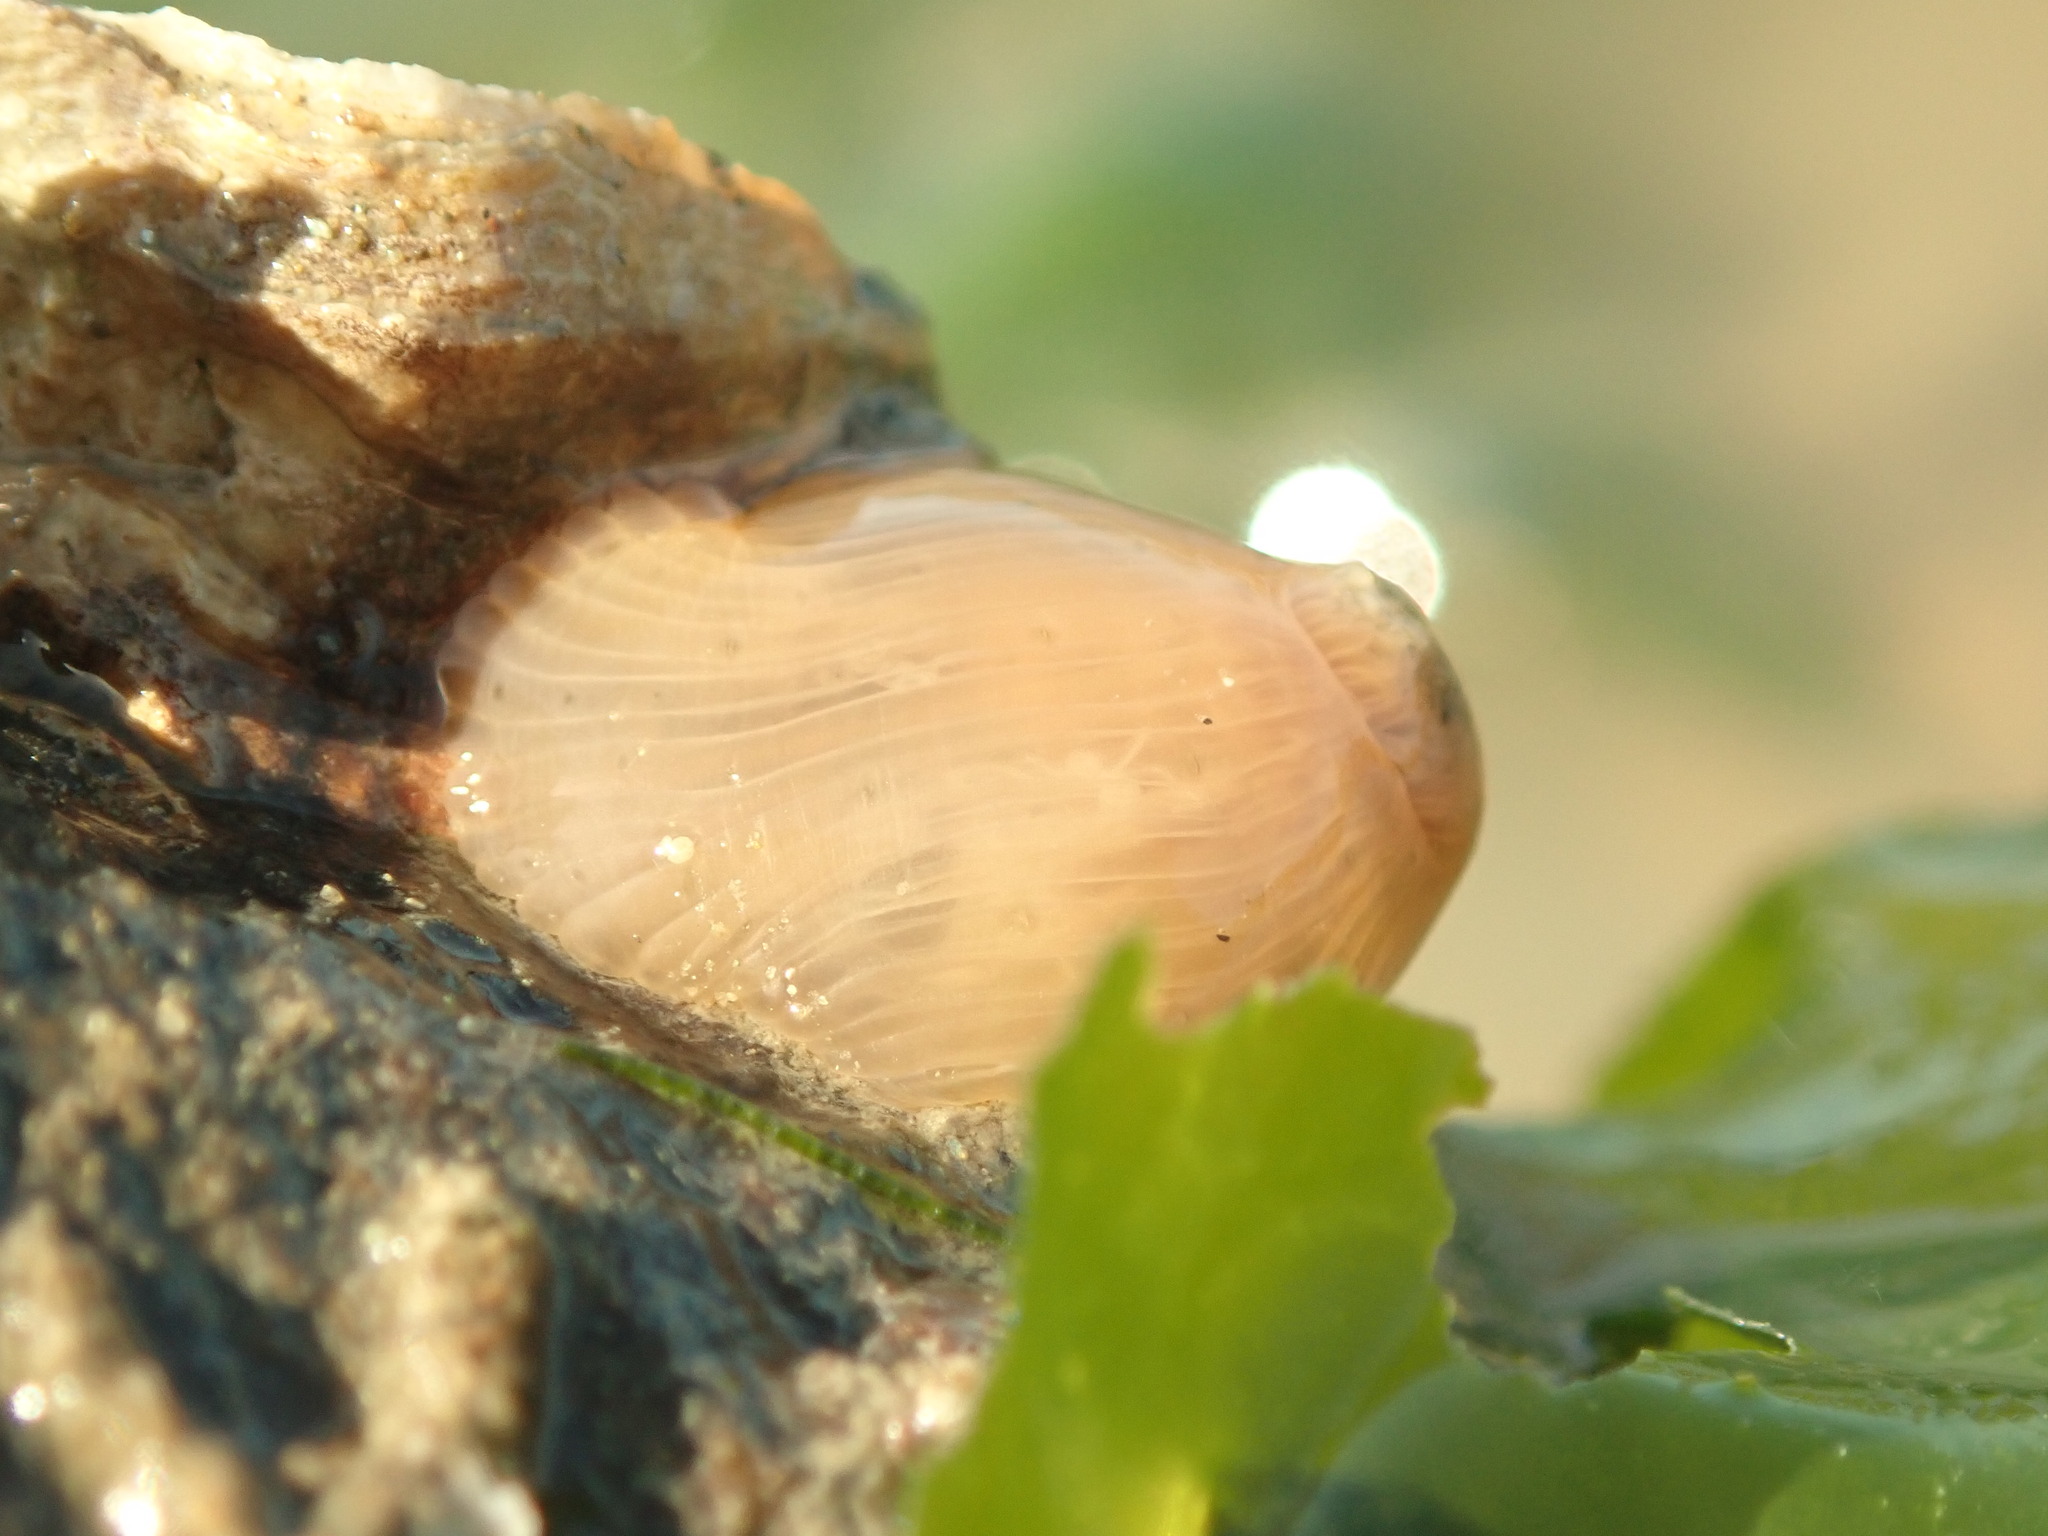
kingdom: Animalia
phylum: Cnidaria
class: Anthozoa
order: Actiniaria
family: Diadumenidae
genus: Diadumene
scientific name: Diadumene leucolena
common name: White anemone
